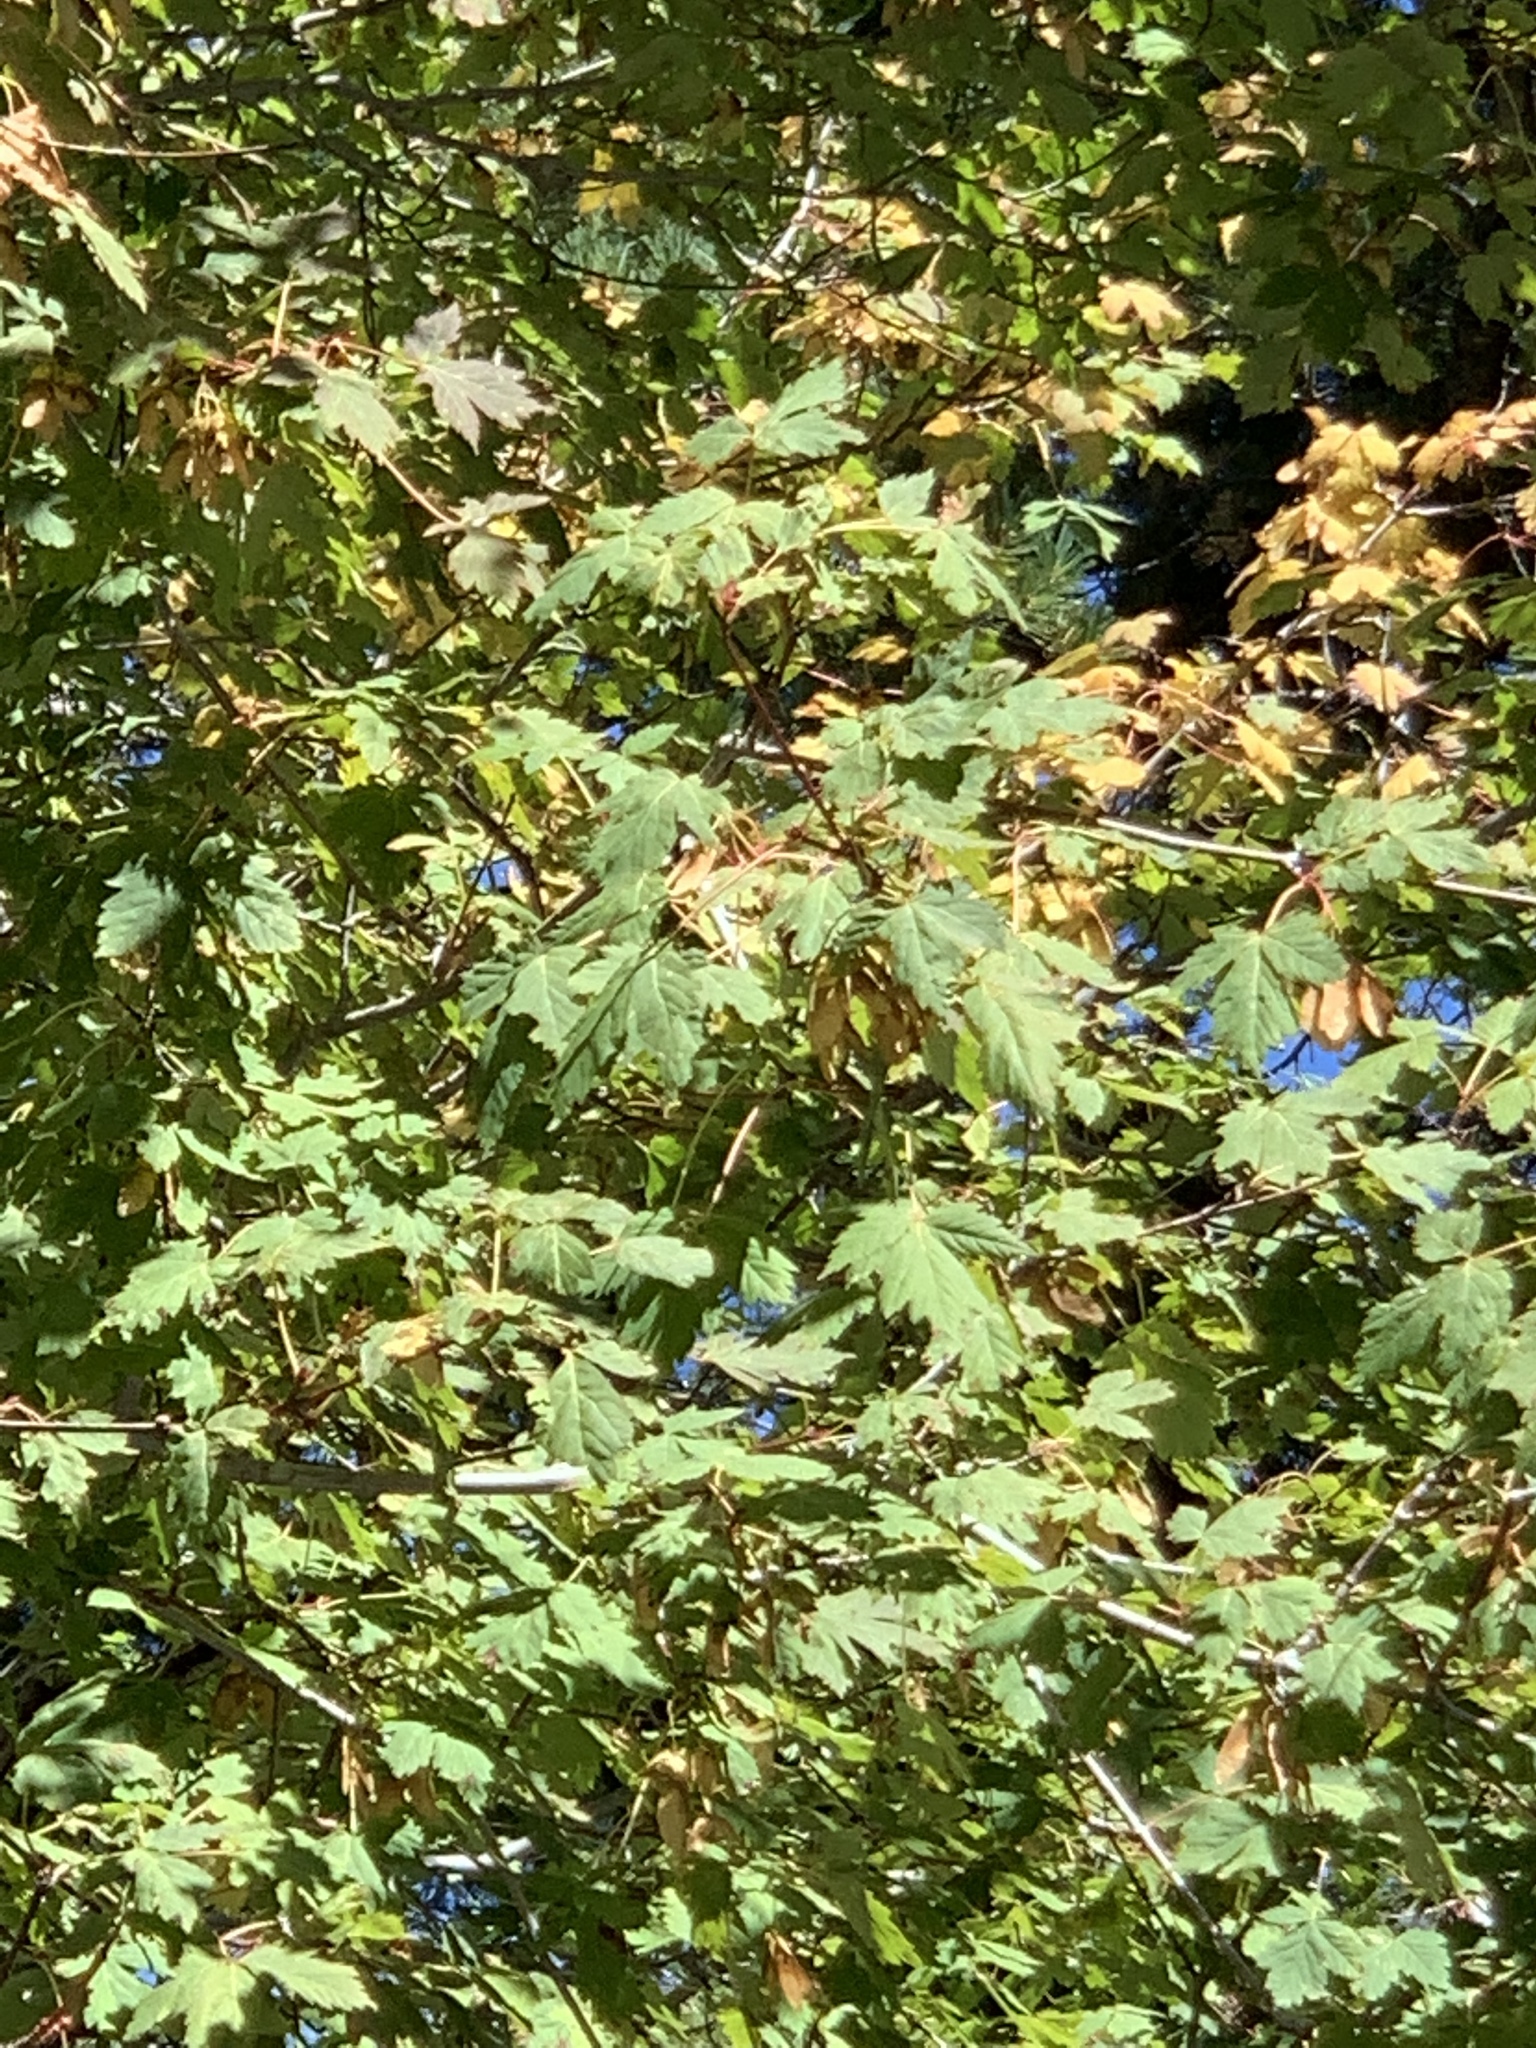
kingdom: Plantae
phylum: Tracheophyta
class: Magnoliopsida
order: Sapindales
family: Sapindaceae
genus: Acer
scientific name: Acer glabrum
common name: Rocky mountain maple
